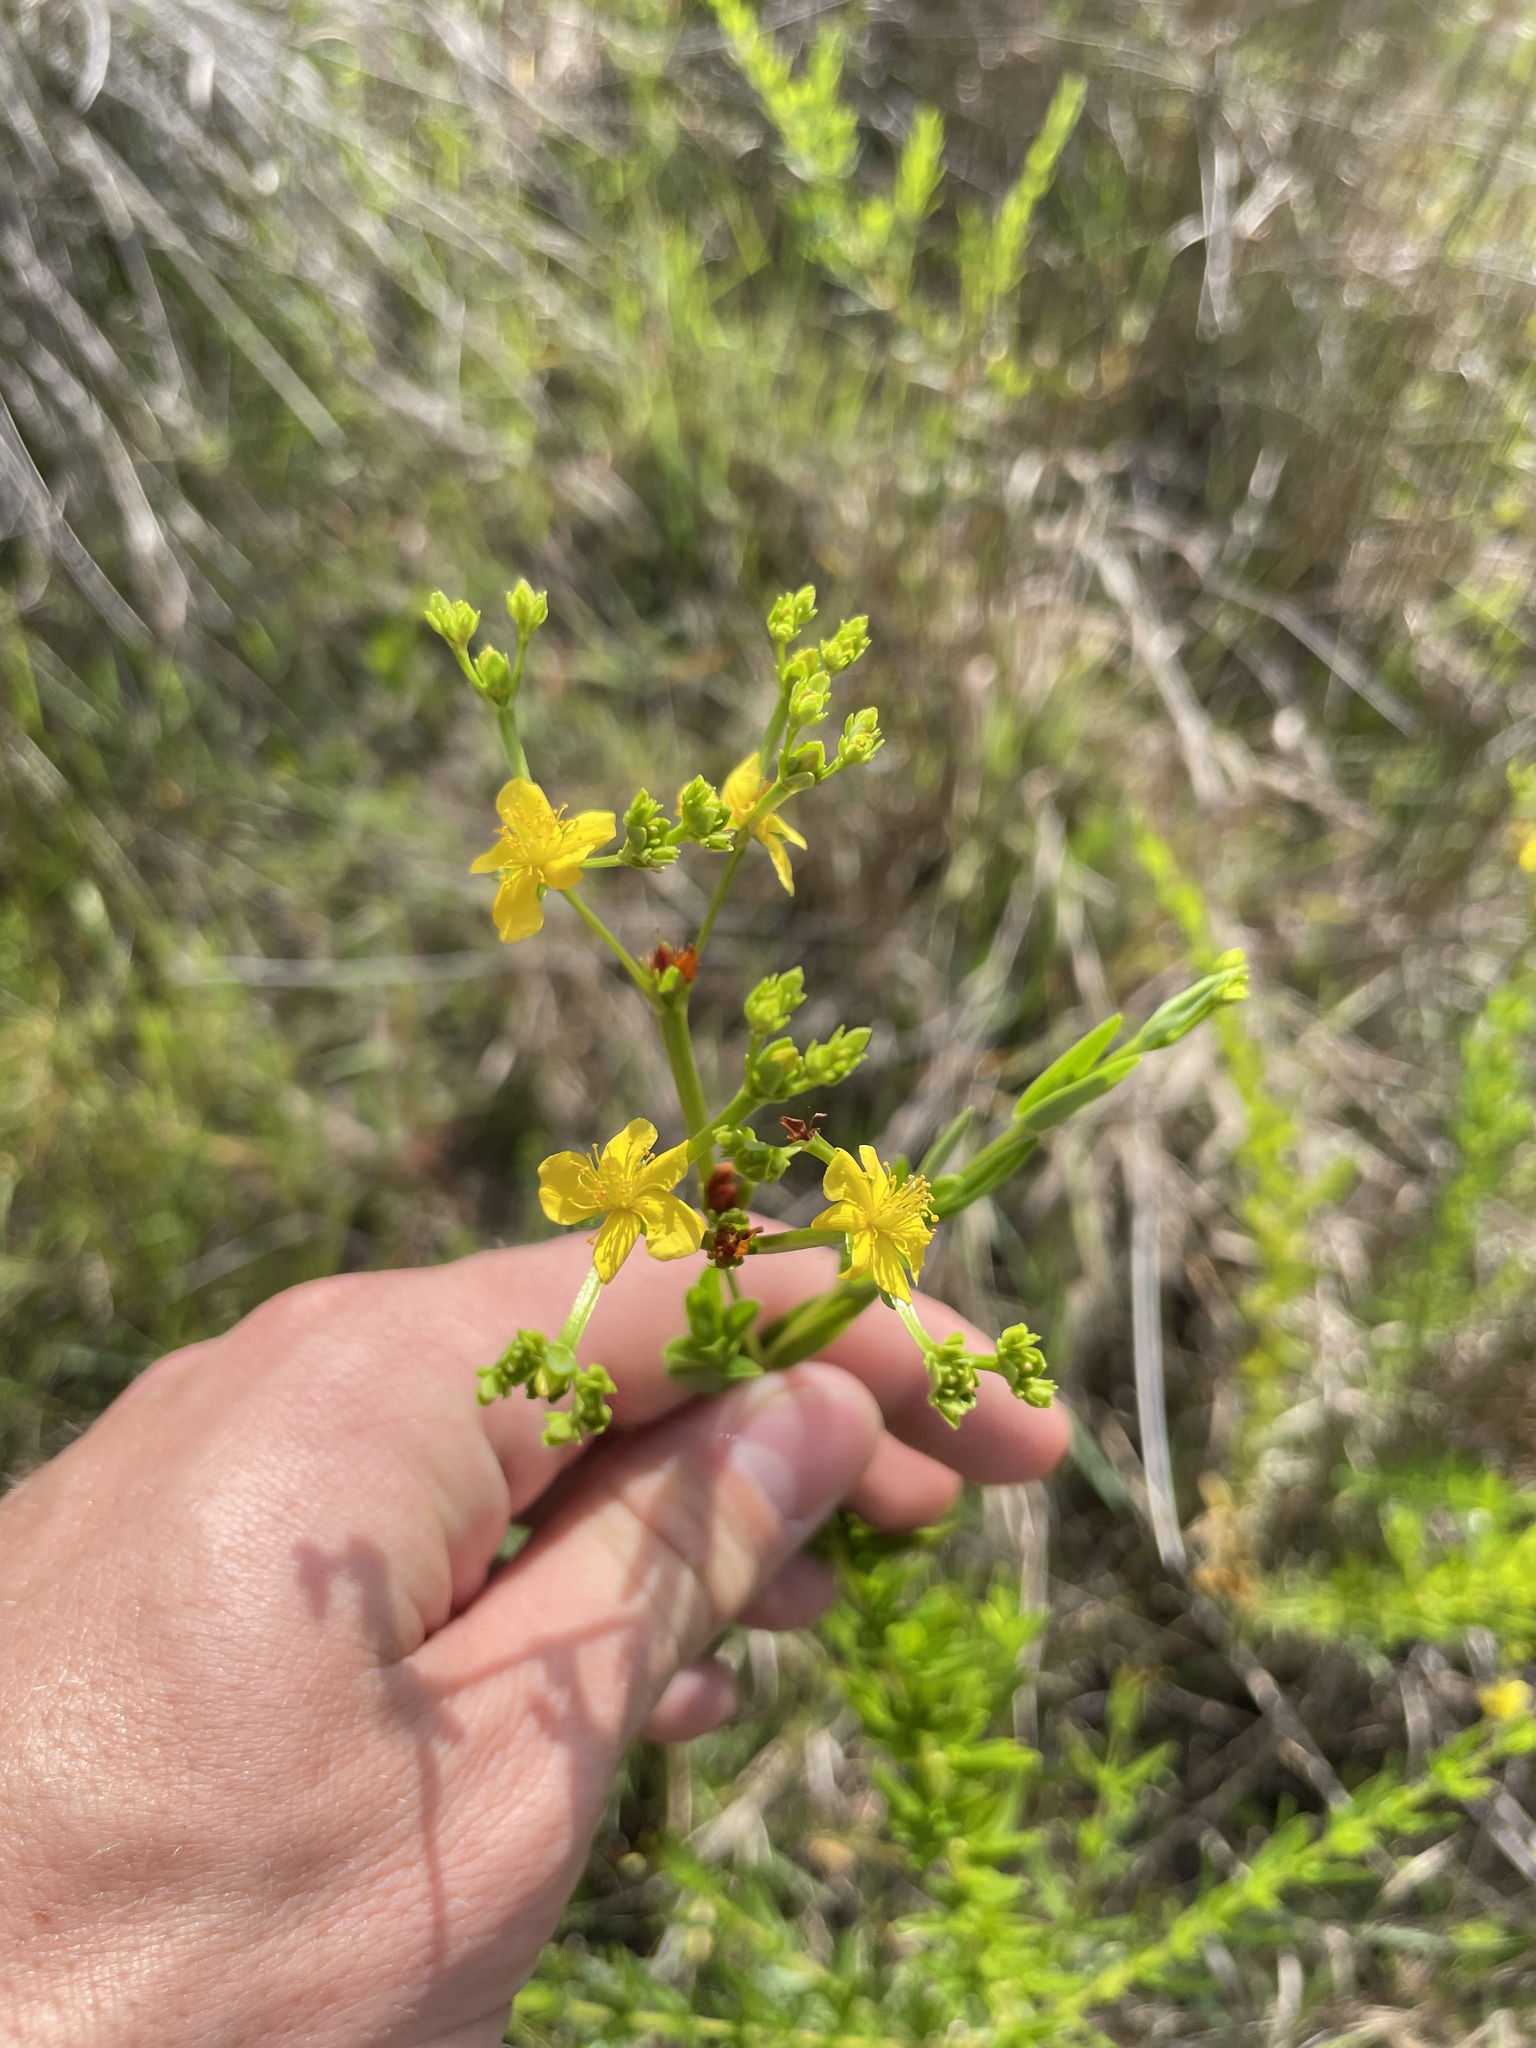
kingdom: Plantae
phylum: Tracheophyta
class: Magnoliopsida
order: Malpighiales
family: Hypericaceae
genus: Hypericum
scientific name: Hypericum cistifolium
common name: Round-pod st. john's-wort
